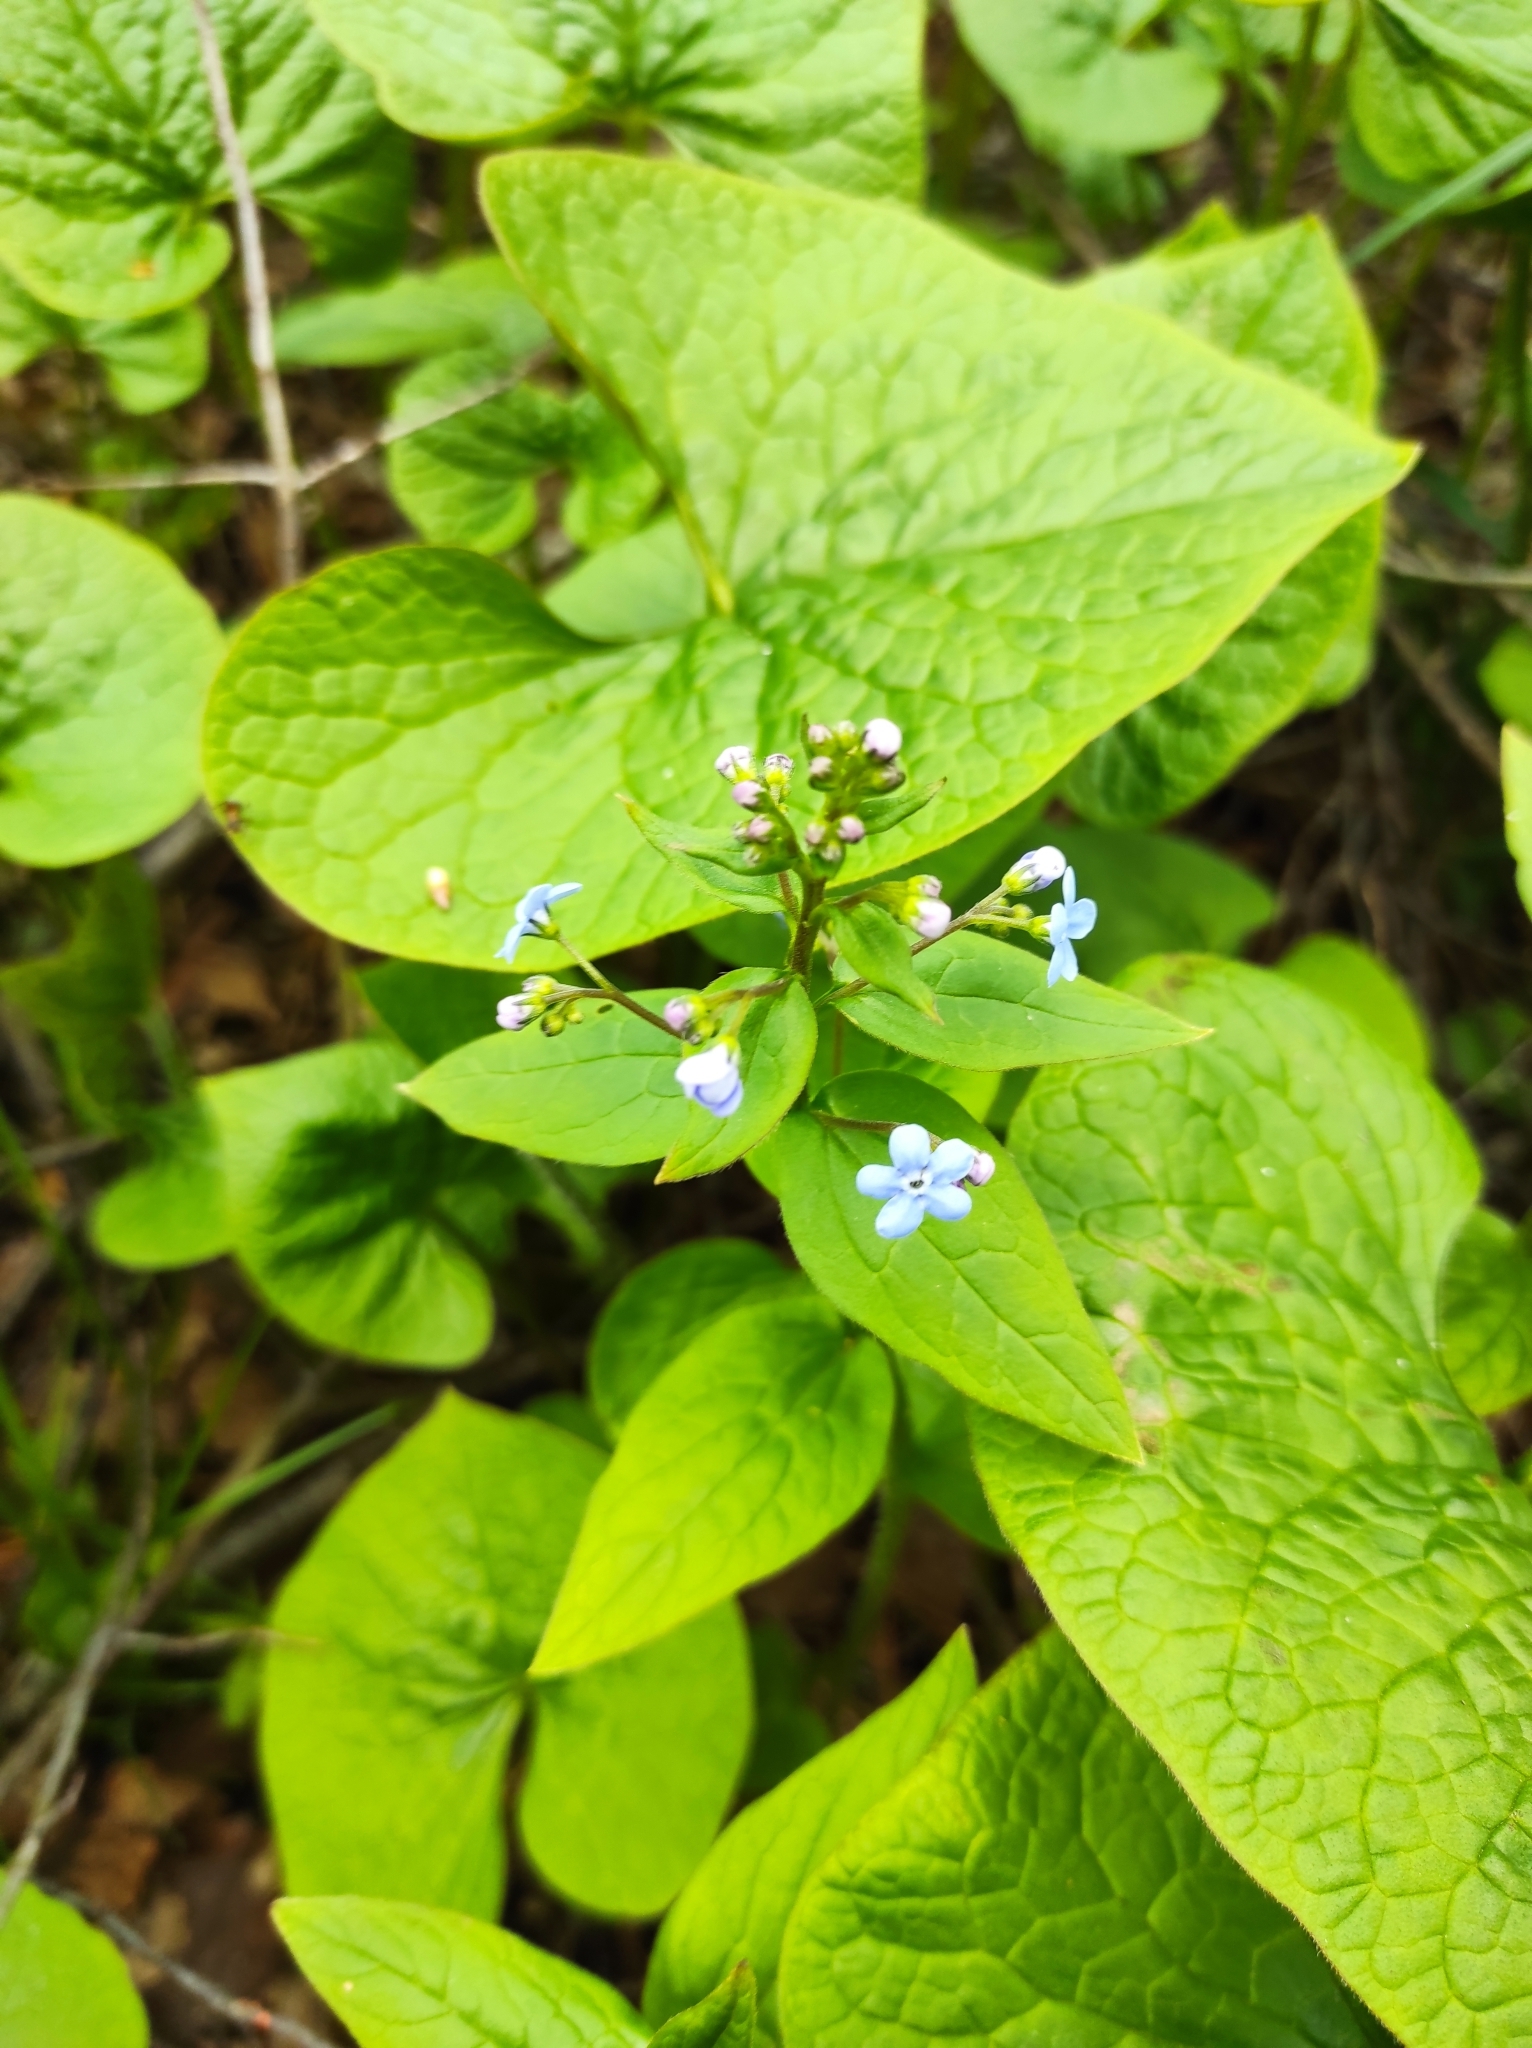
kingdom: Plantae
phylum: Tracheophyta
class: Magnoliopsida
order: Boraginales
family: Boraginaceae
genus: Brunnera
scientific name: Brunnera sibirica
